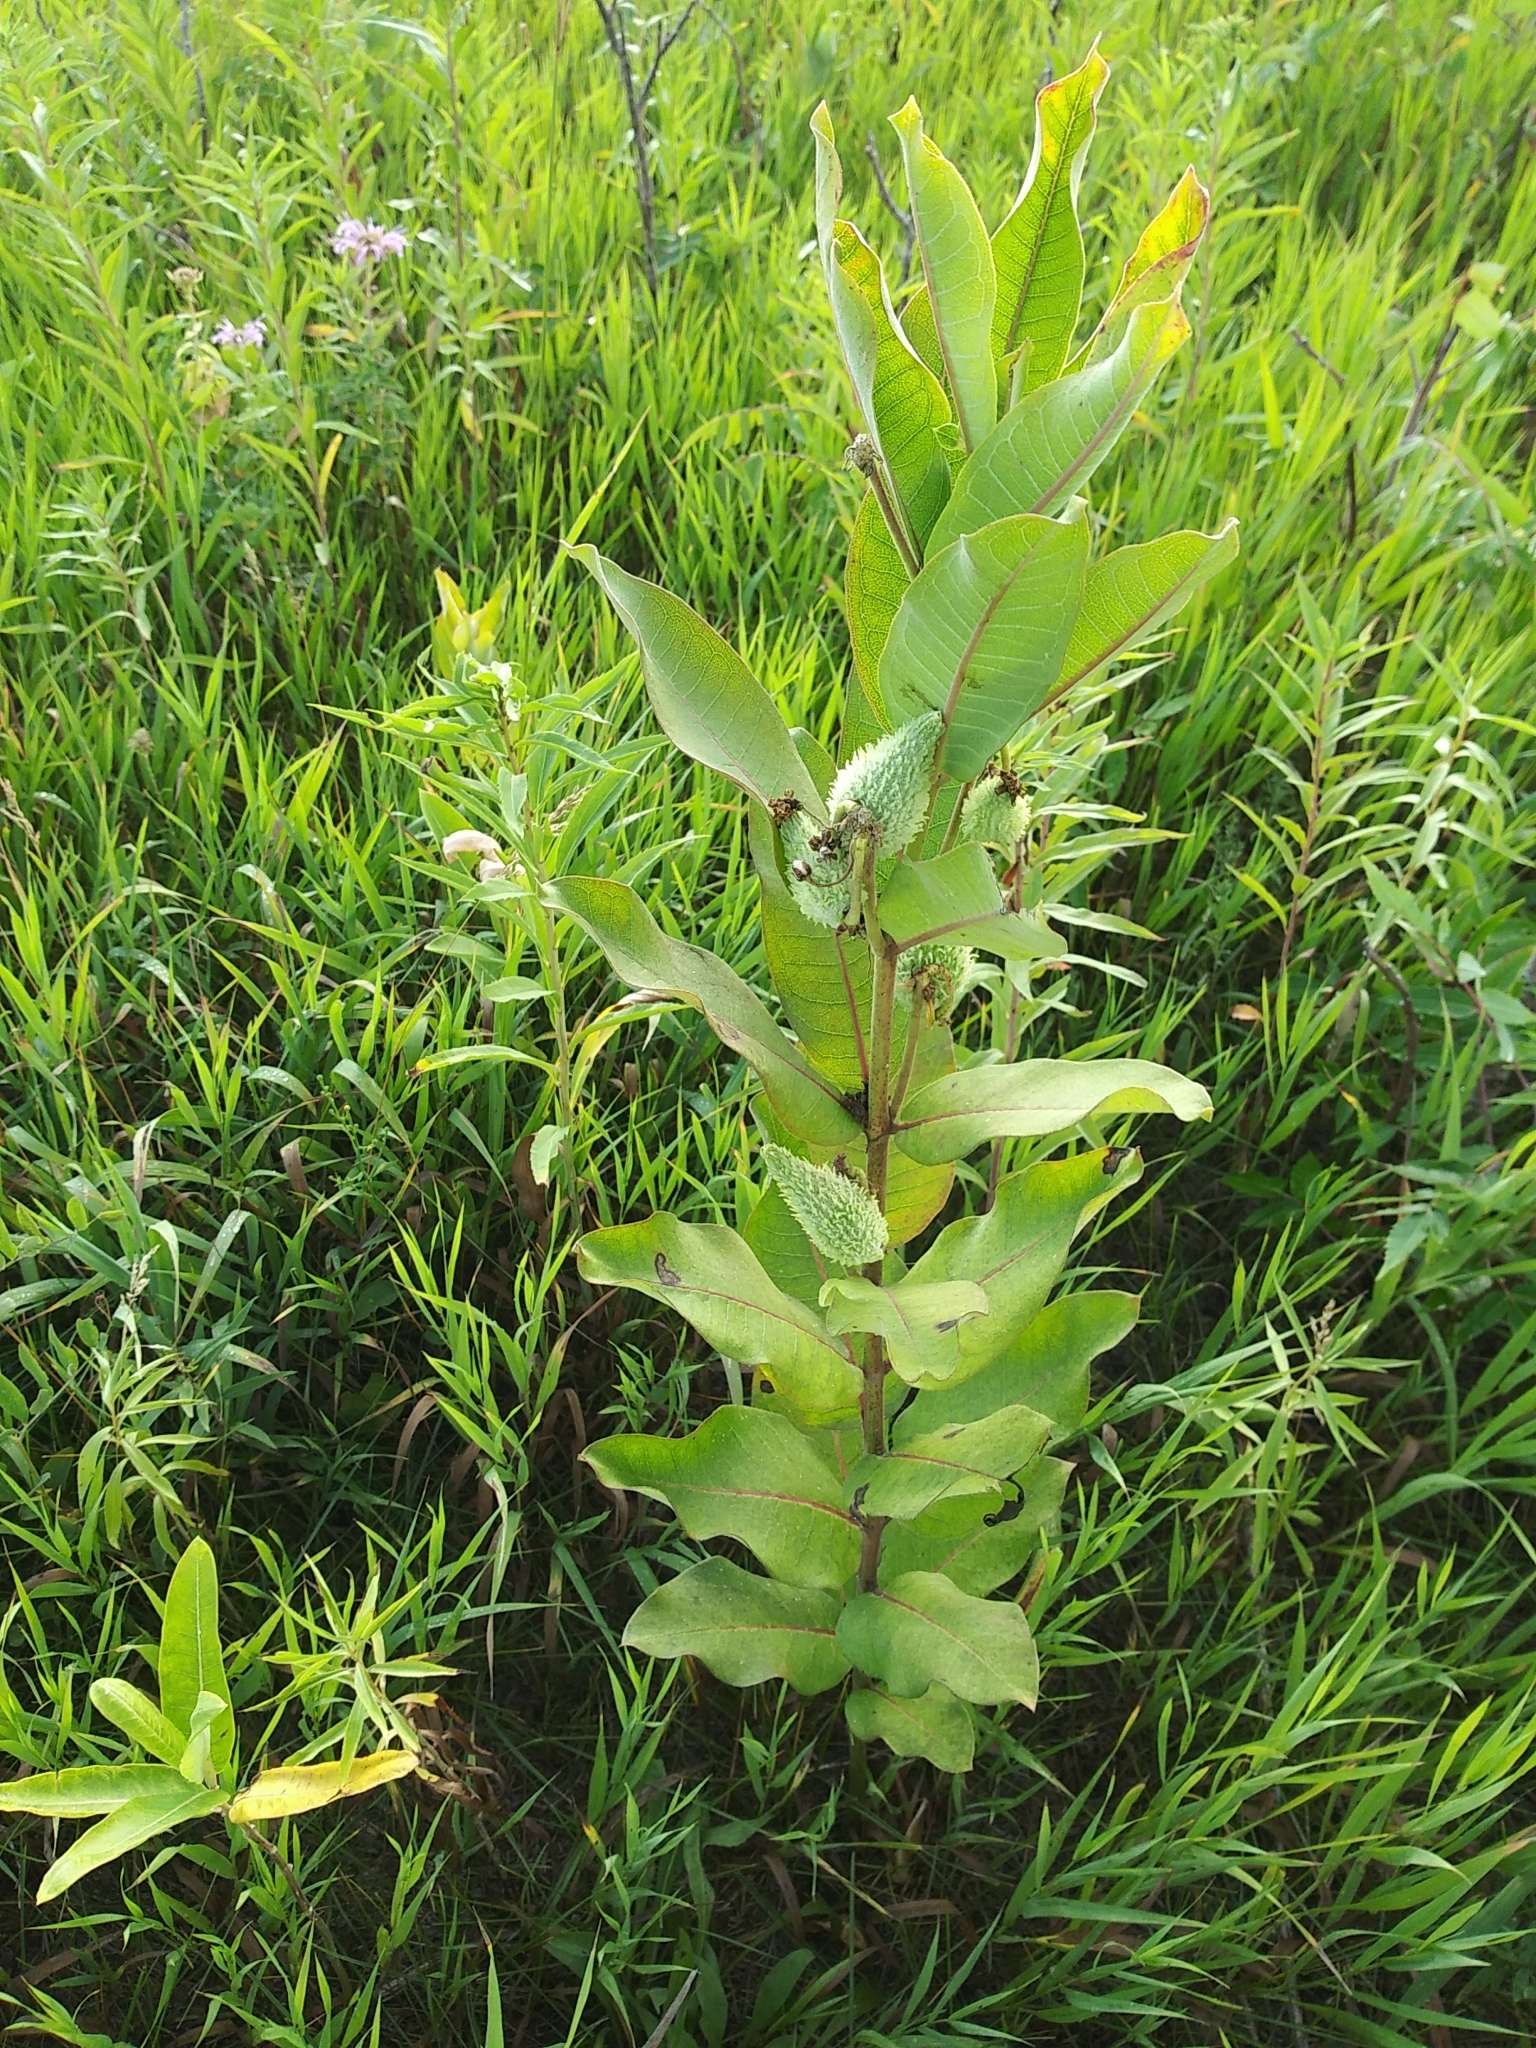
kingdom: Plantae
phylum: Tracheophyta
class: Magnoliopsida
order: Gentianales
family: Apocynaceae
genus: Asclepias
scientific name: Asclepias syriaca
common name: Common milkweed
